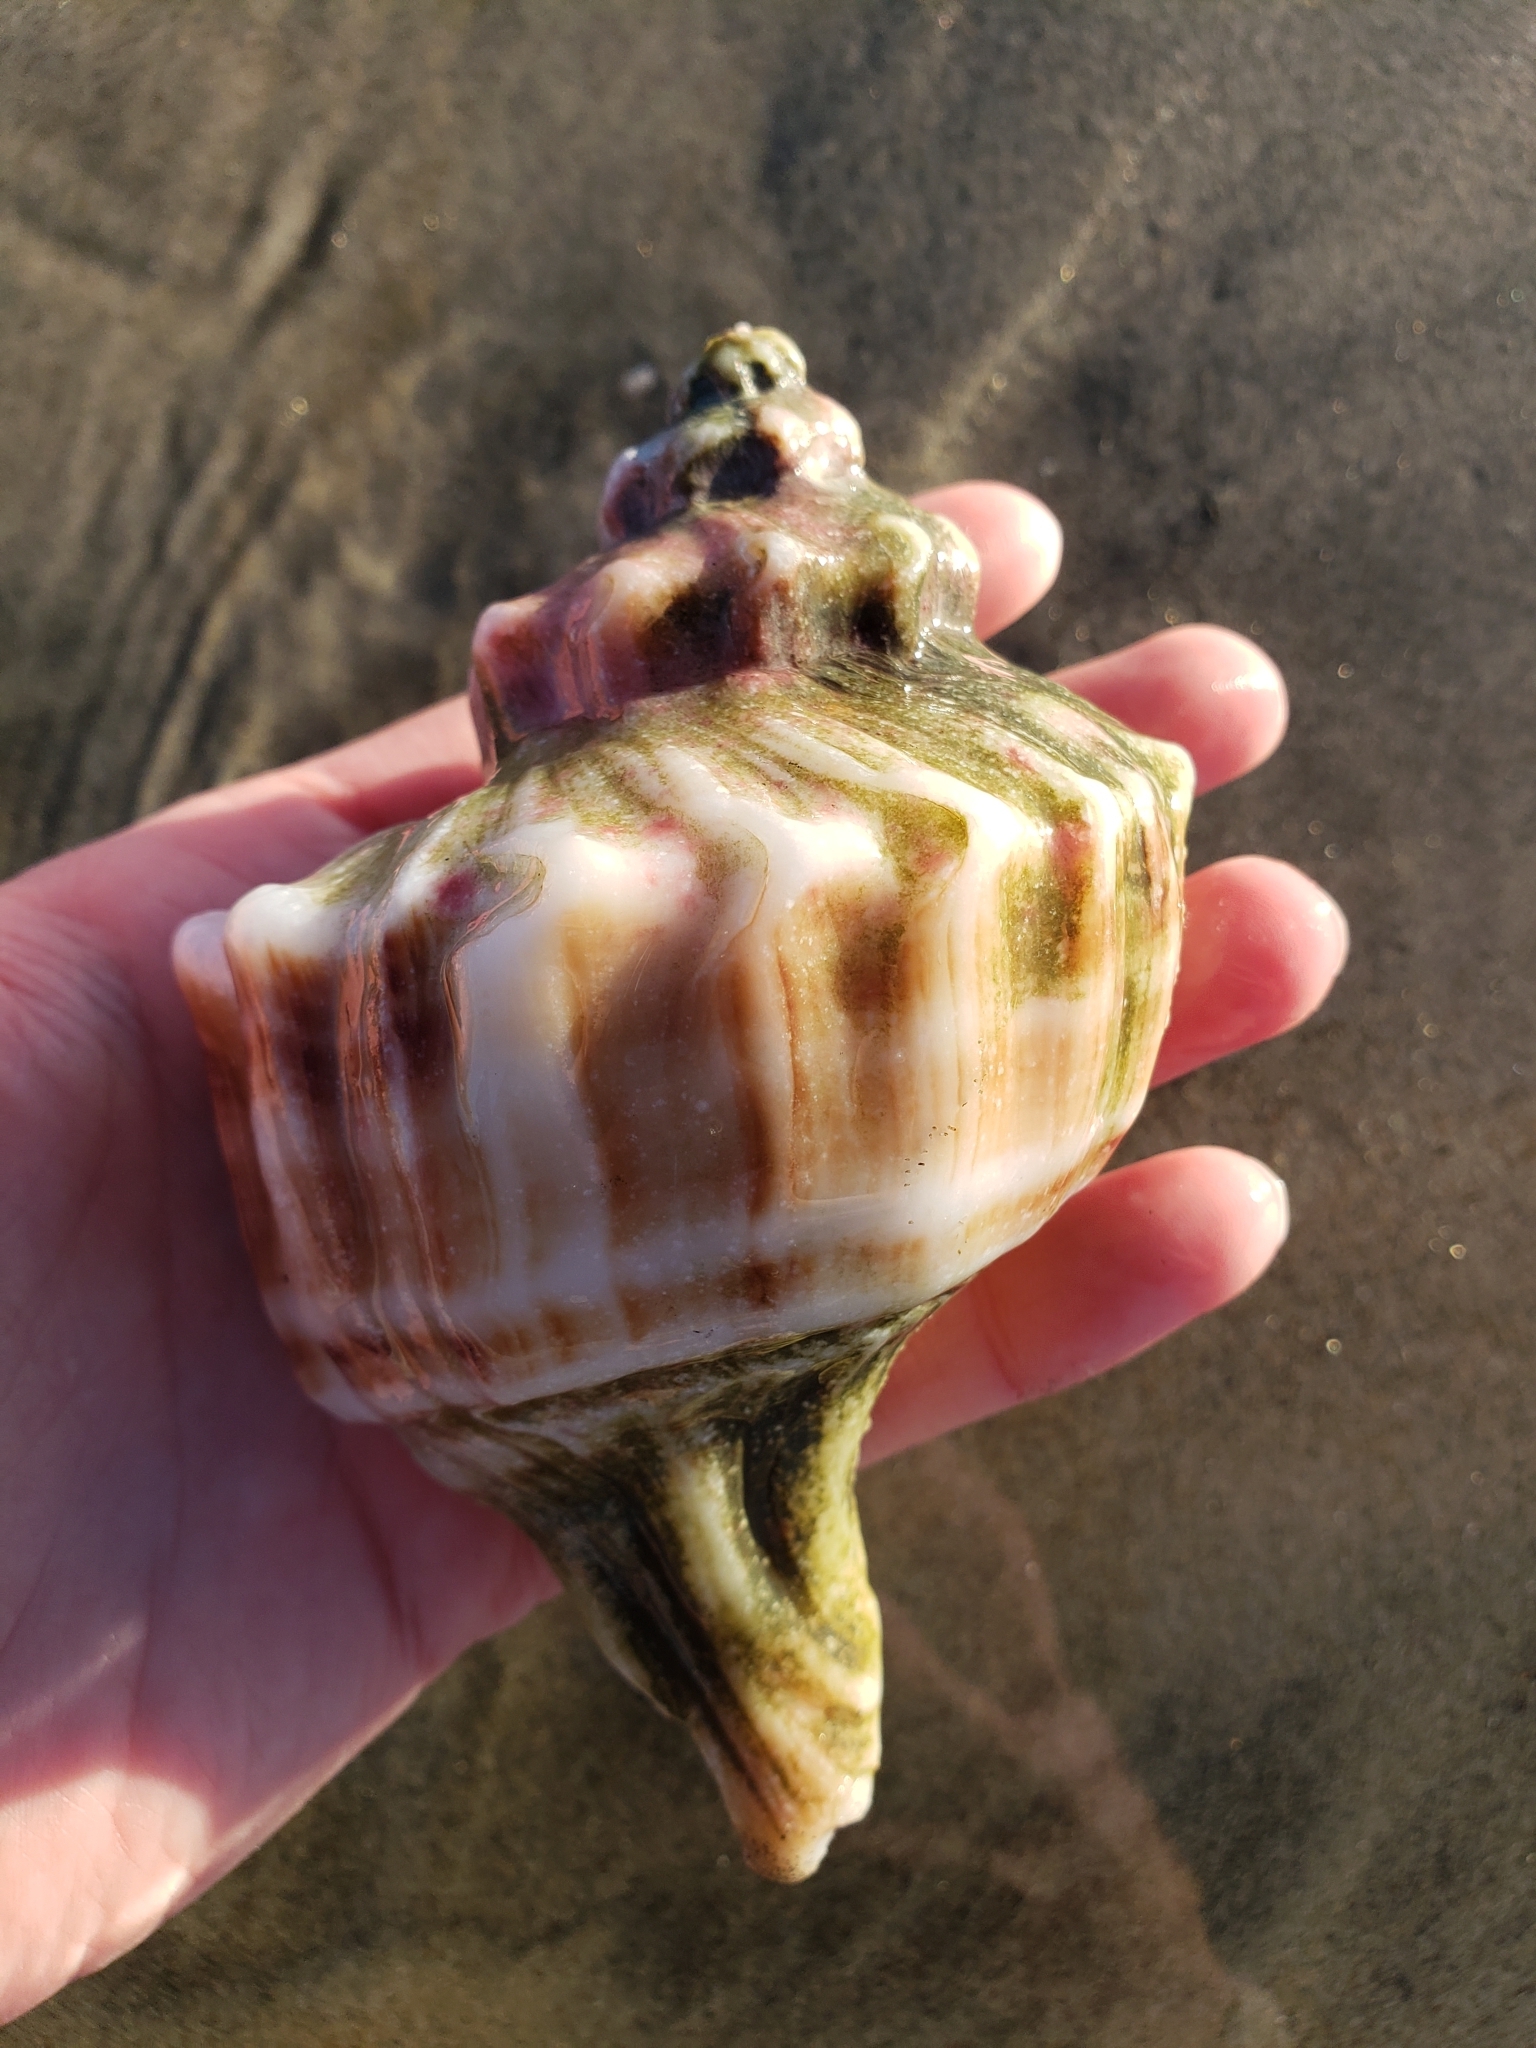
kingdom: Animalia
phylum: Mollusca
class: Gastropoda
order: Neogastropoda
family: Muricidae
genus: Forreria
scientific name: Forreria belcheri
